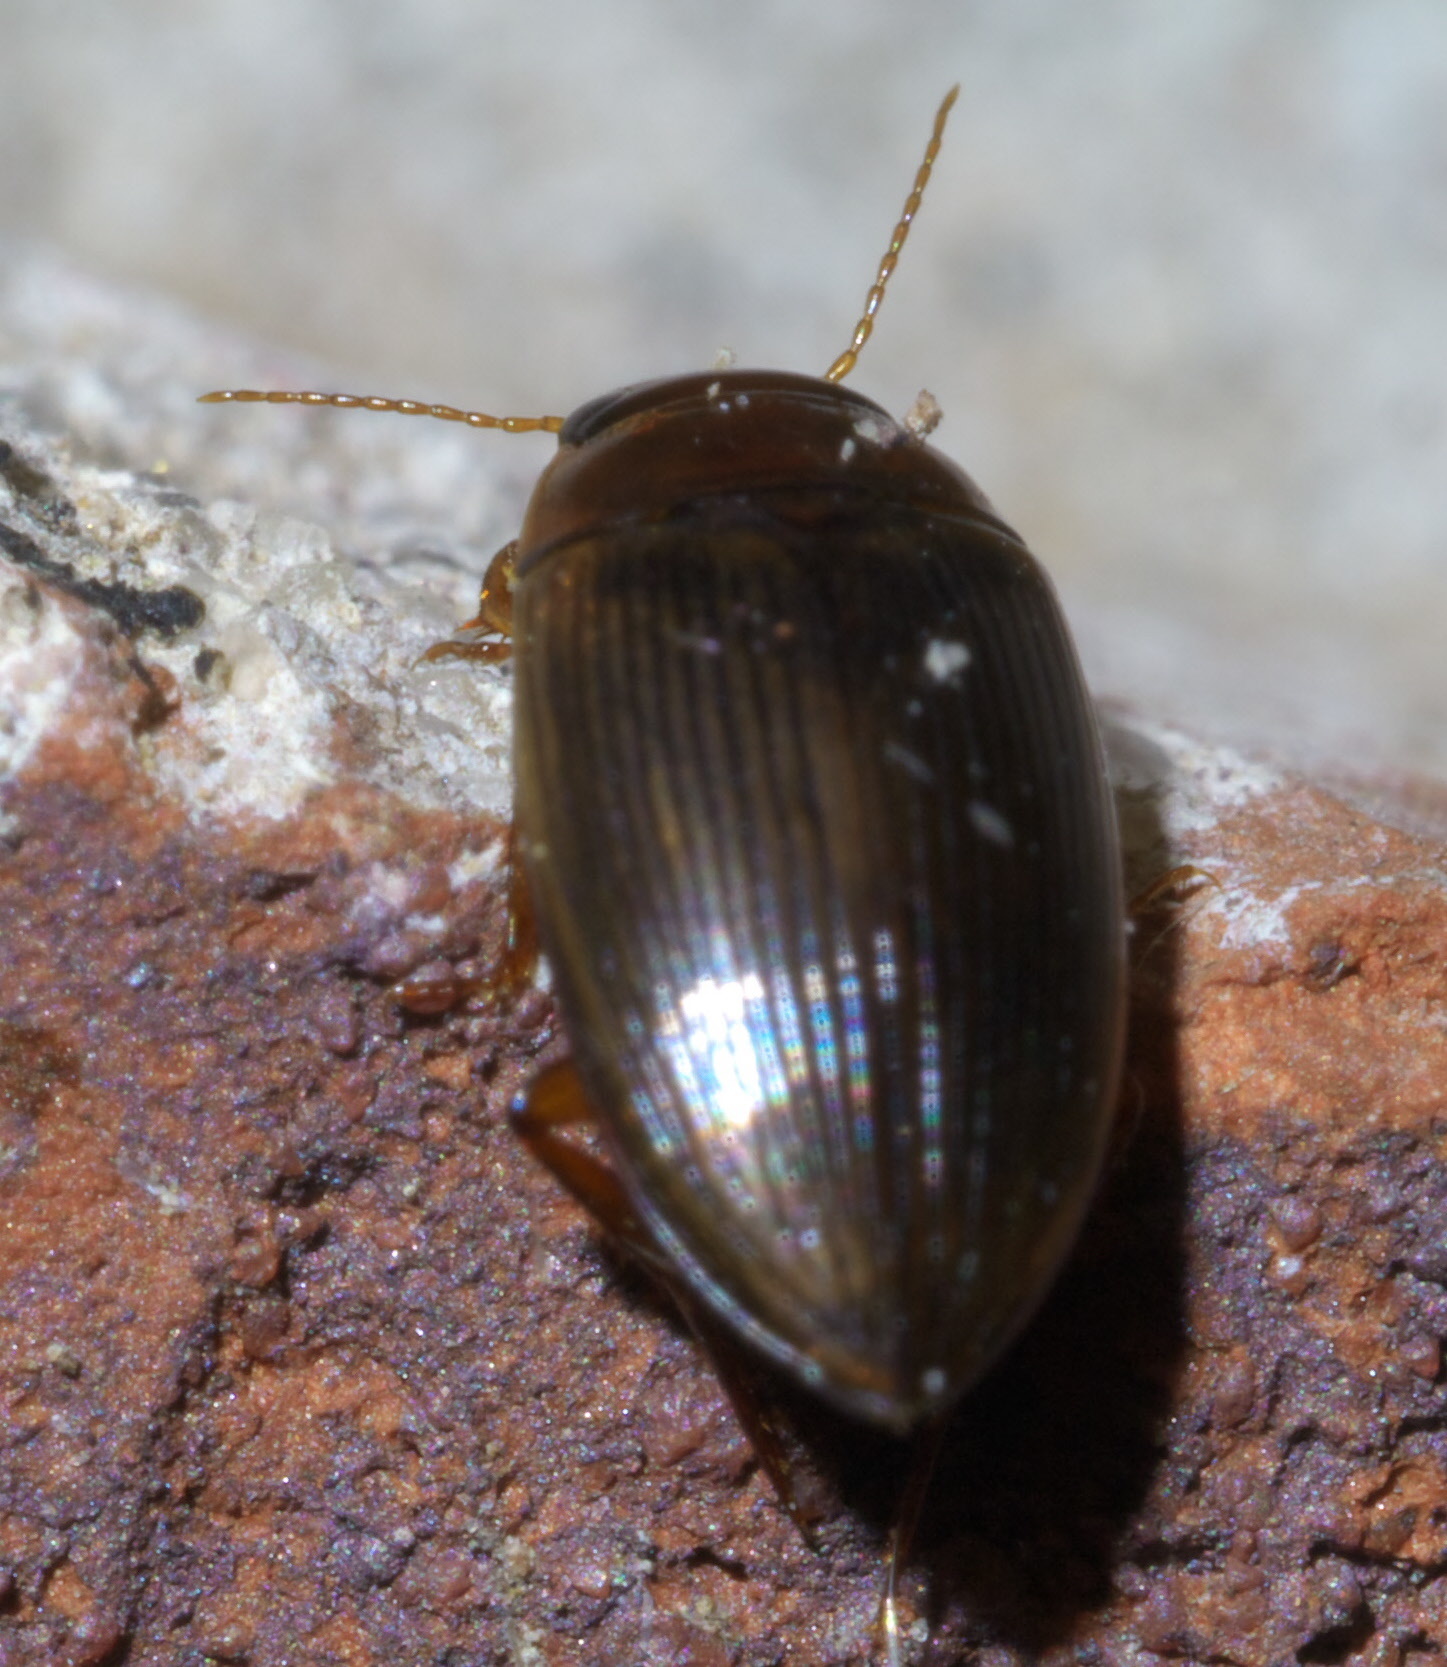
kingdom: Animalia
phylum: Arthropoda
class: Insecta
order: Coleoptera
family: Dytiscidae
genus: Copelatus
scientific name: Copelatus glyphicus
